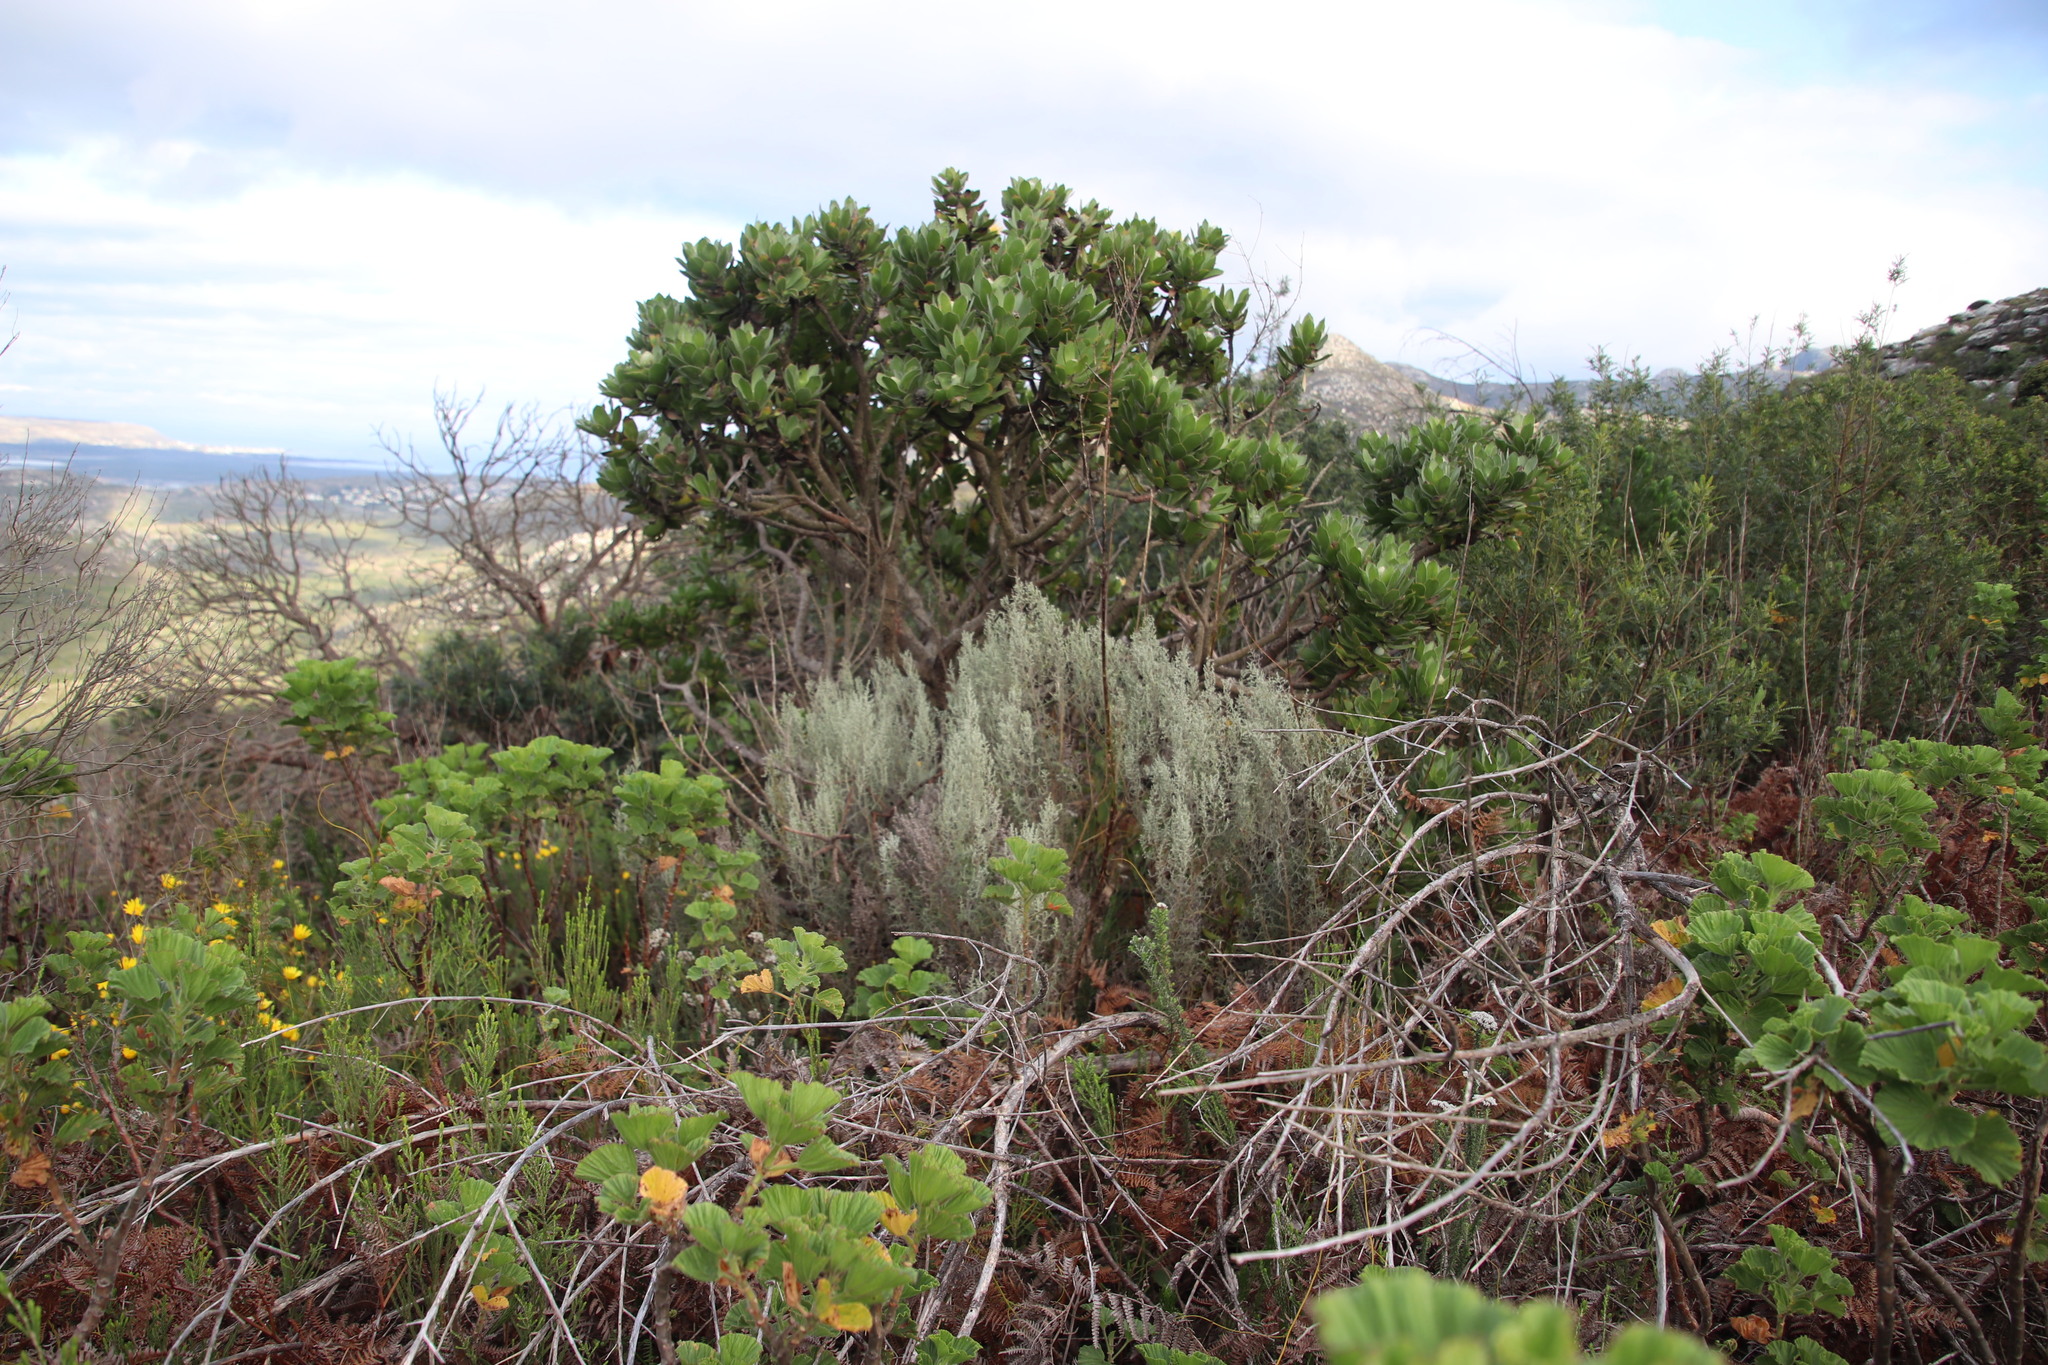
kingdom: Plantae
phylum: Tracheophyta
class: Magnoliopsida
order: Asterales
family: Asteraceae
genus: Seriphium
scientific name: Seriphium plumosum
